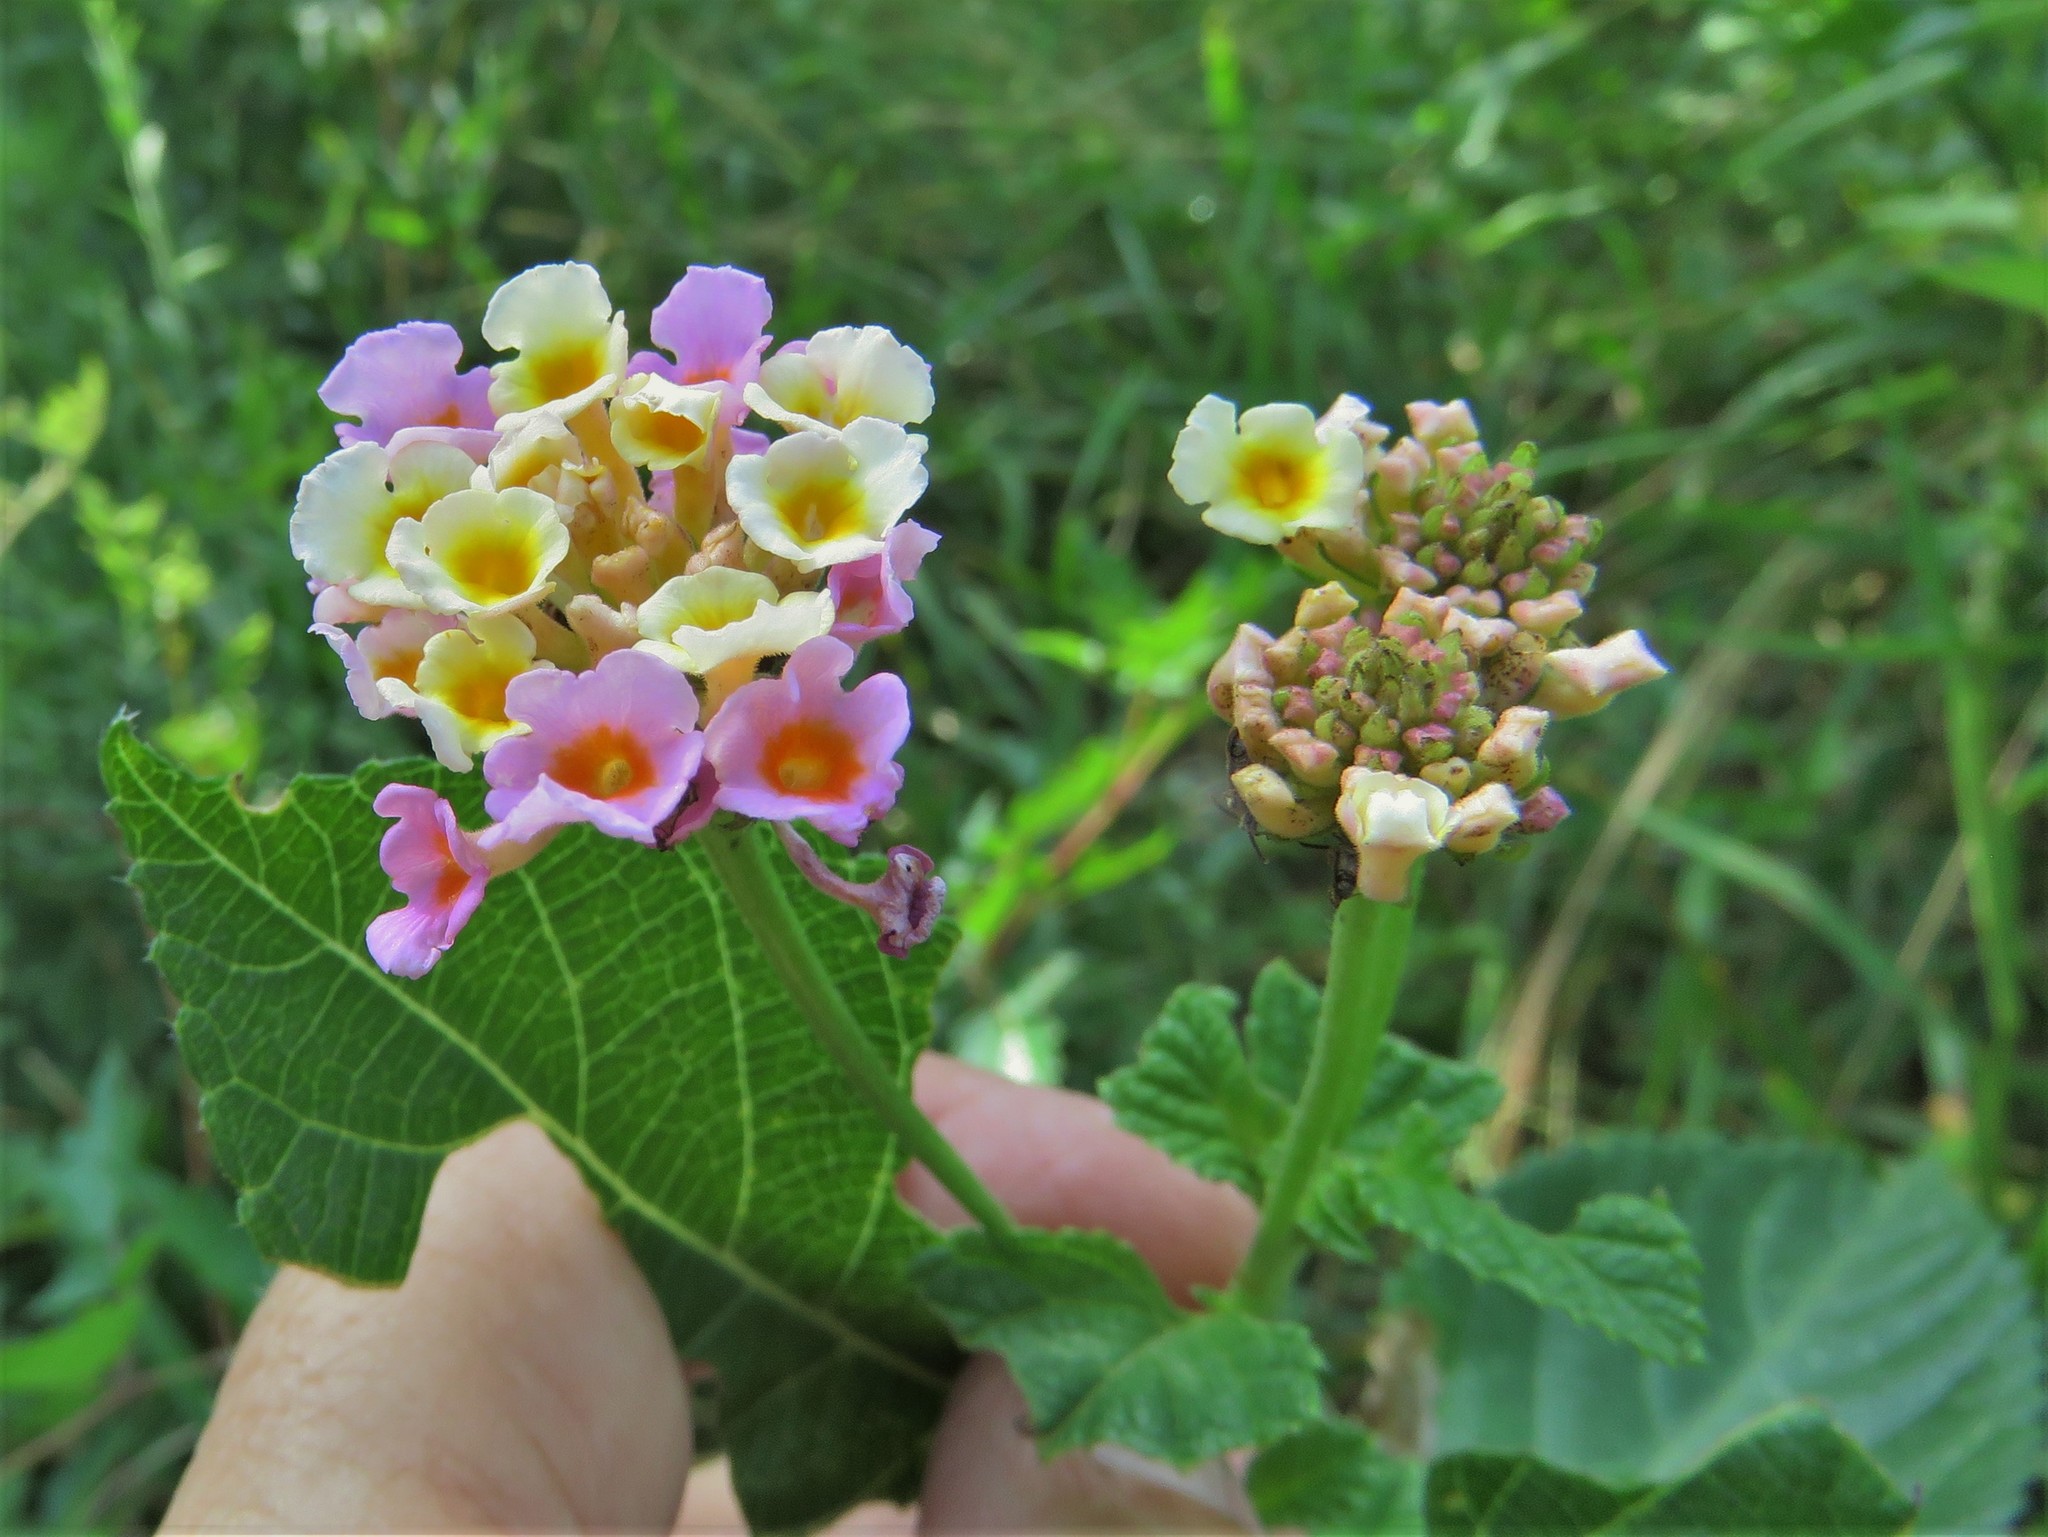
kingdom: Plantae
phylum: Tracheophyta
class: Magnoliopsida
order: Lamiales
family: Verbenaceae
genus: Lantana
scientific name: Lantana strigocamara
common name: Lantana
